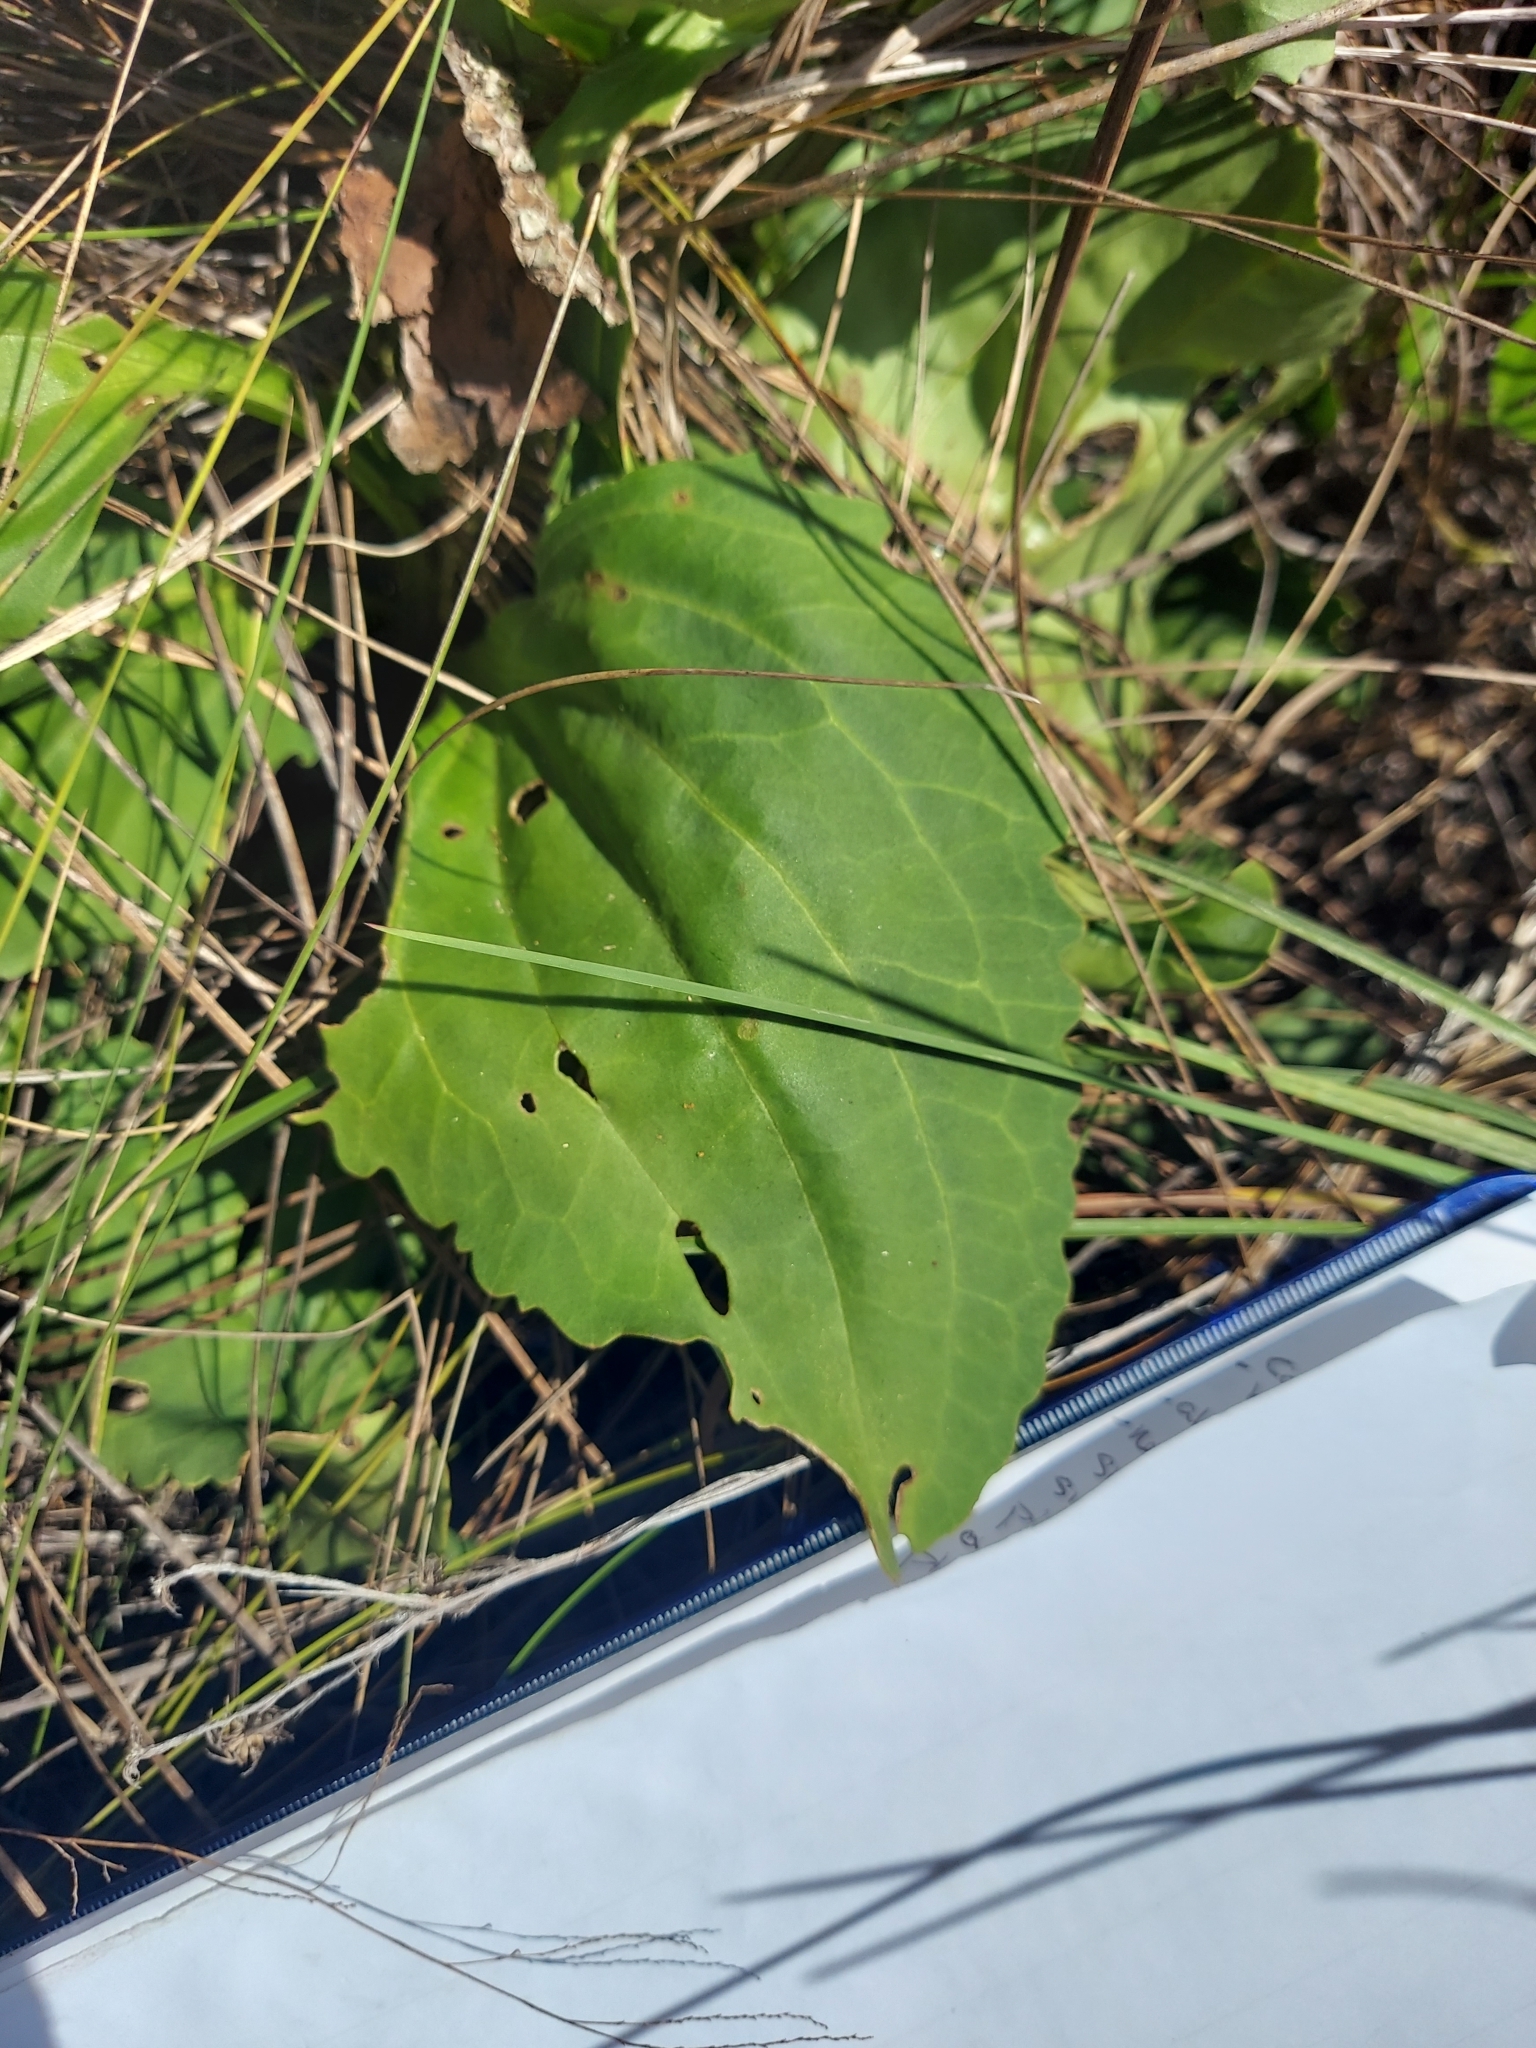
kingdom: Plantae
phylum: Tracheophyta
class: Magnoliopsida
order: Asterales
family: Asteraceae
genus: Arnoglossum
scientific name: Arnoglossum floridanum
